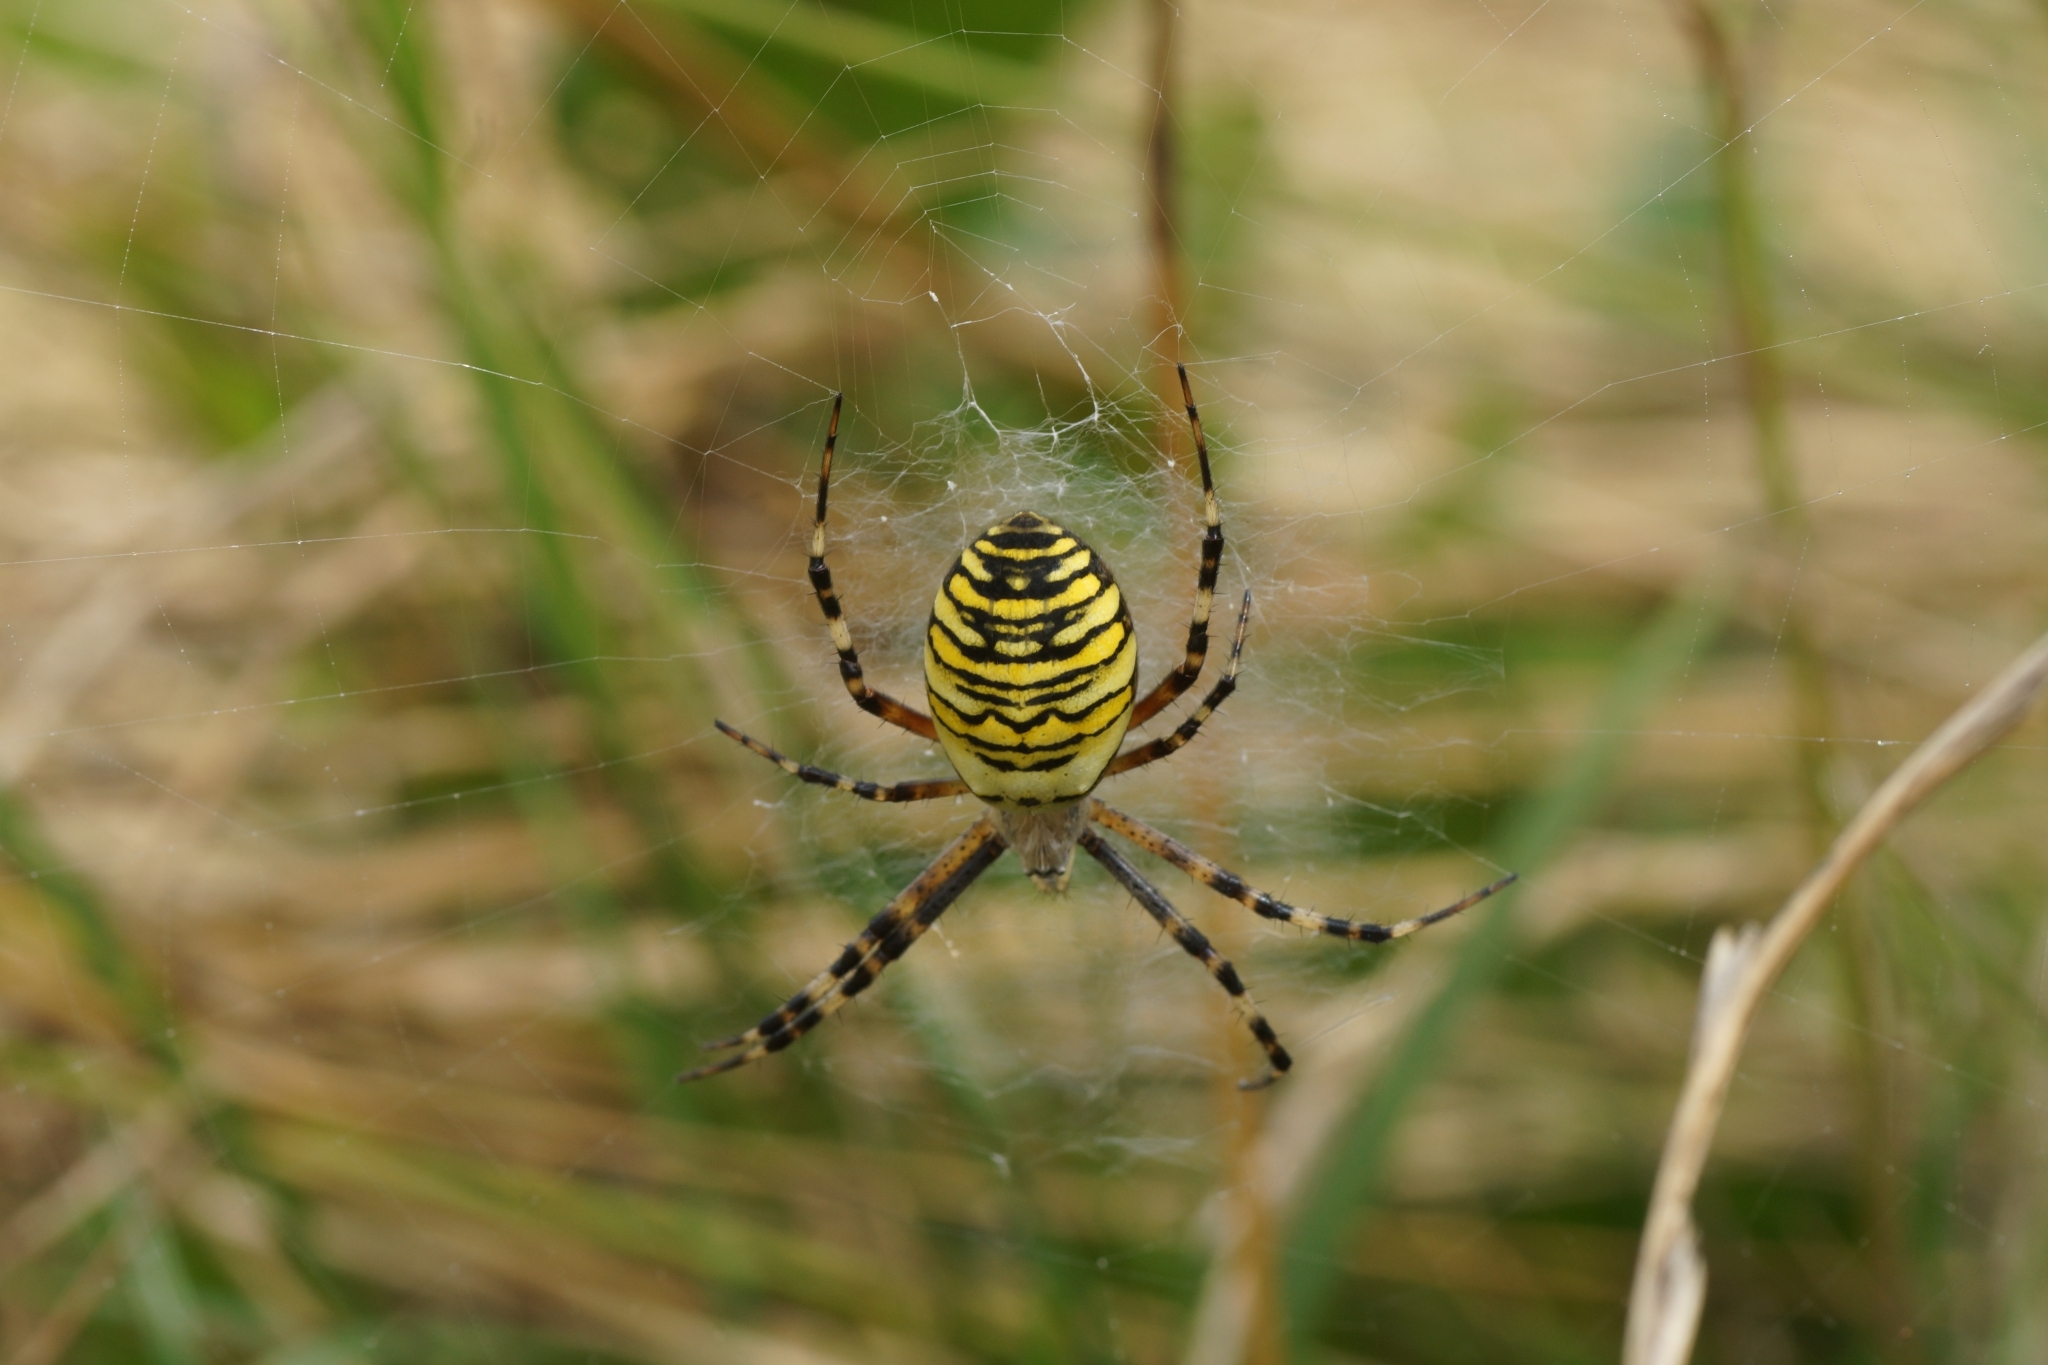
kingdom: Animalia
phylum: Arthropoda
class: Arachnida
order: Araneae
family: Araneidae
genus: Argiope
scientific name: Argiope bruennichi
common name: Wasp spider
